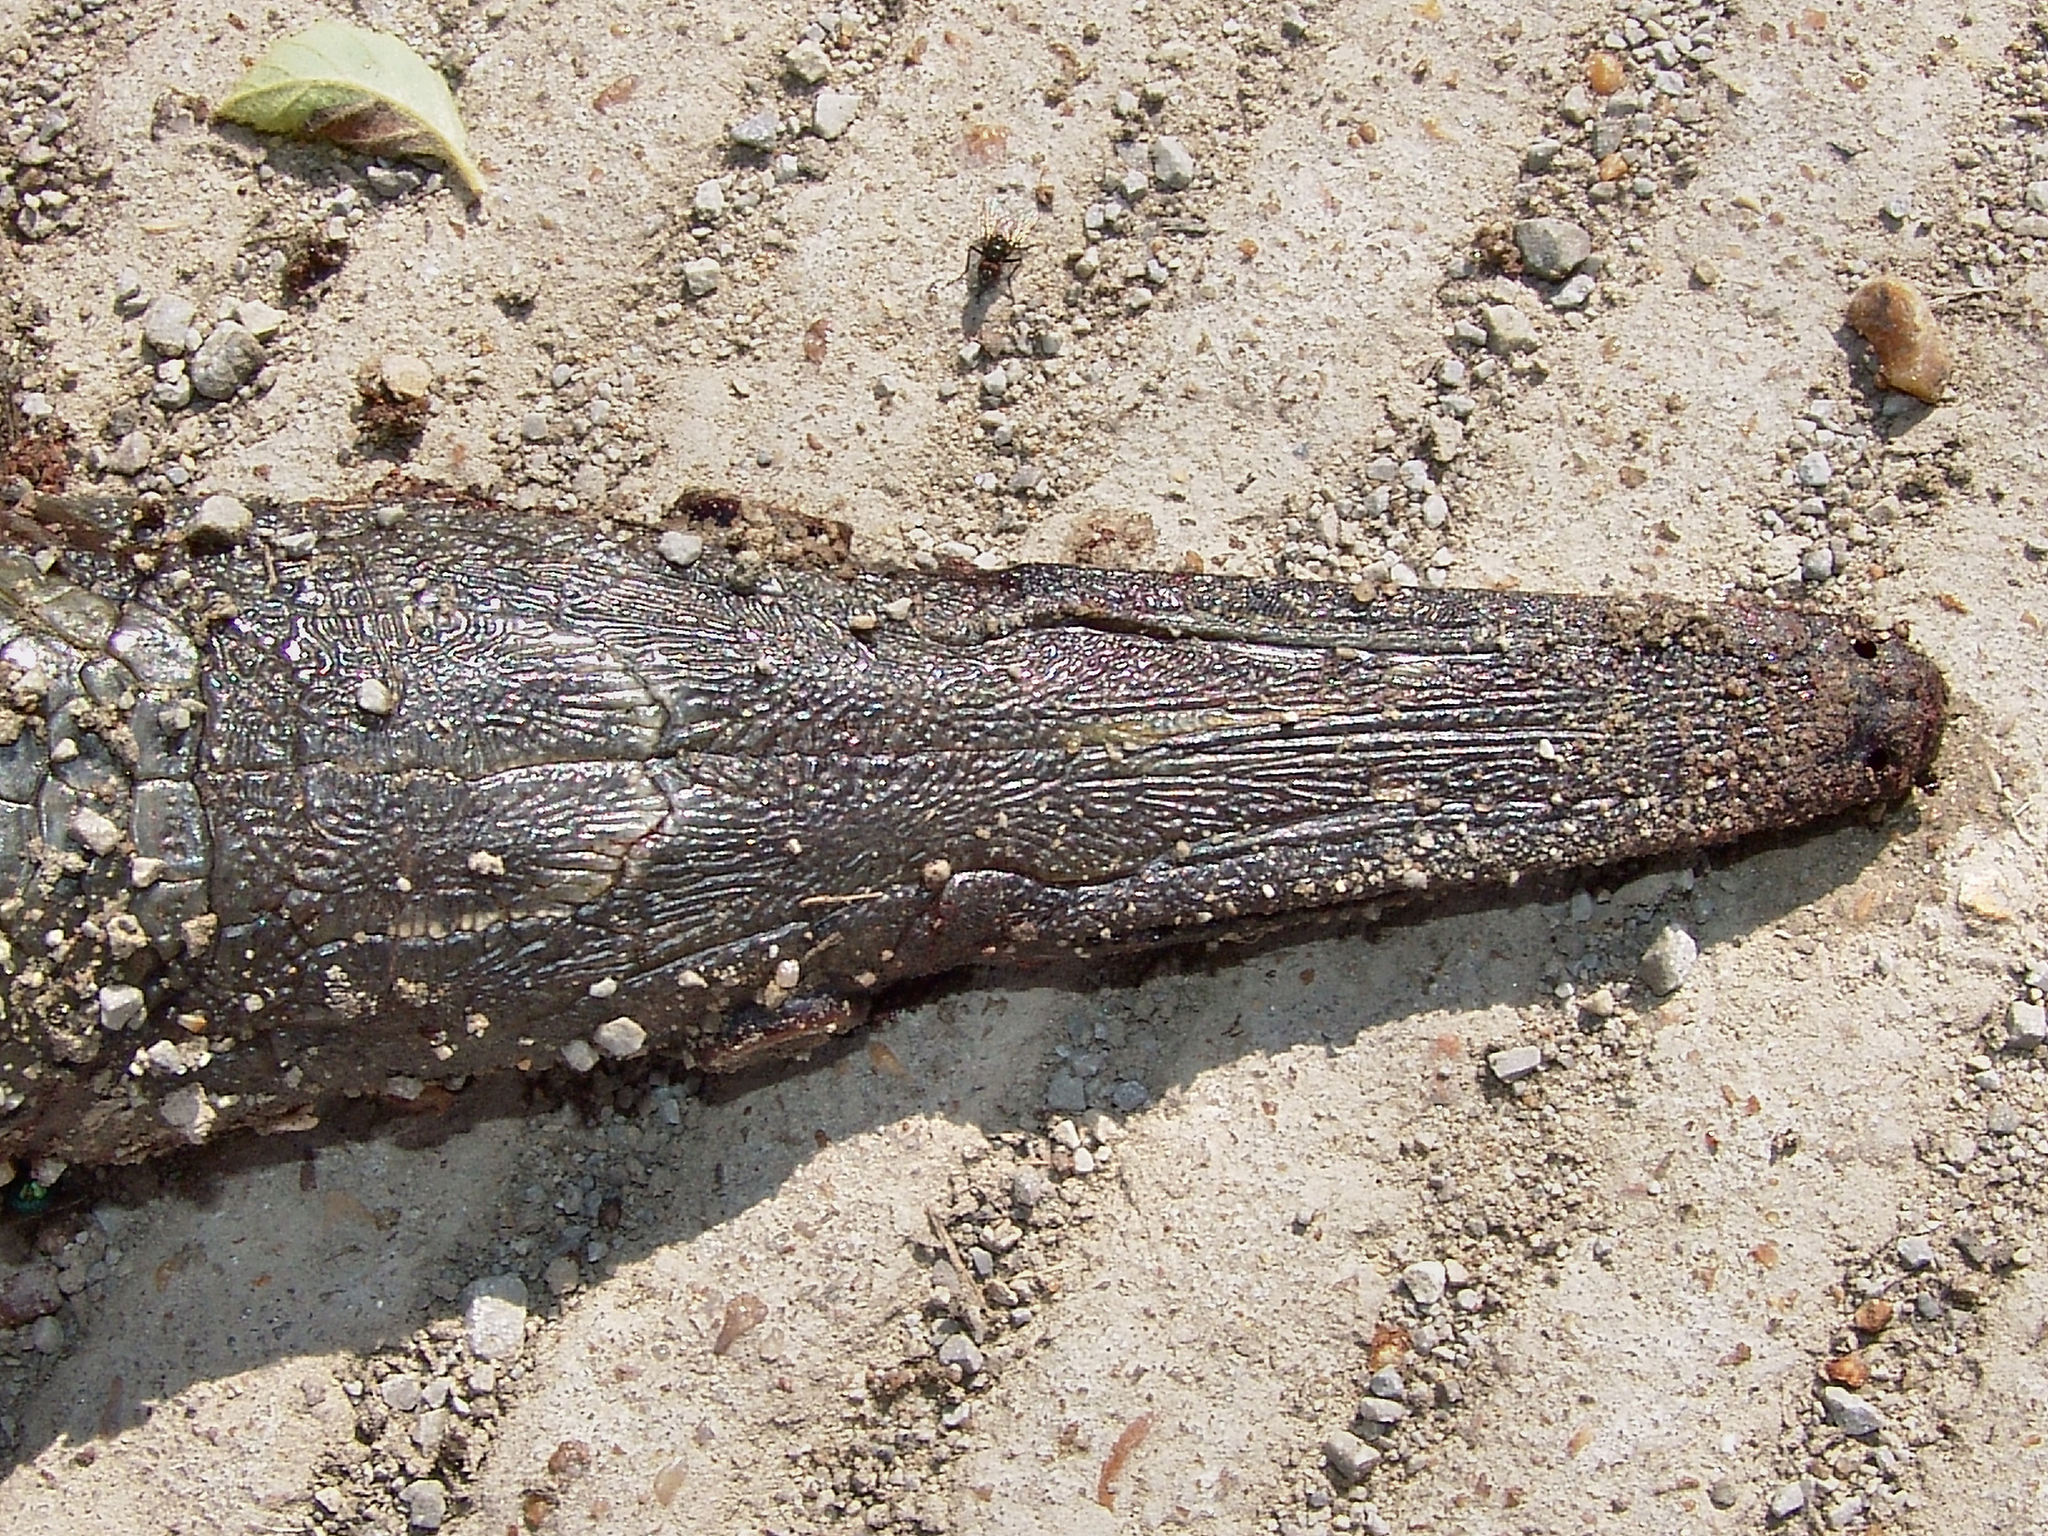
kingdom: Animalia
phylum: Chordata
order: Lepisosteiformes
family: Lepisosteidae
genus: Atractosteus
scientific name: Atractosteus spatula
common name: Alligator gar
